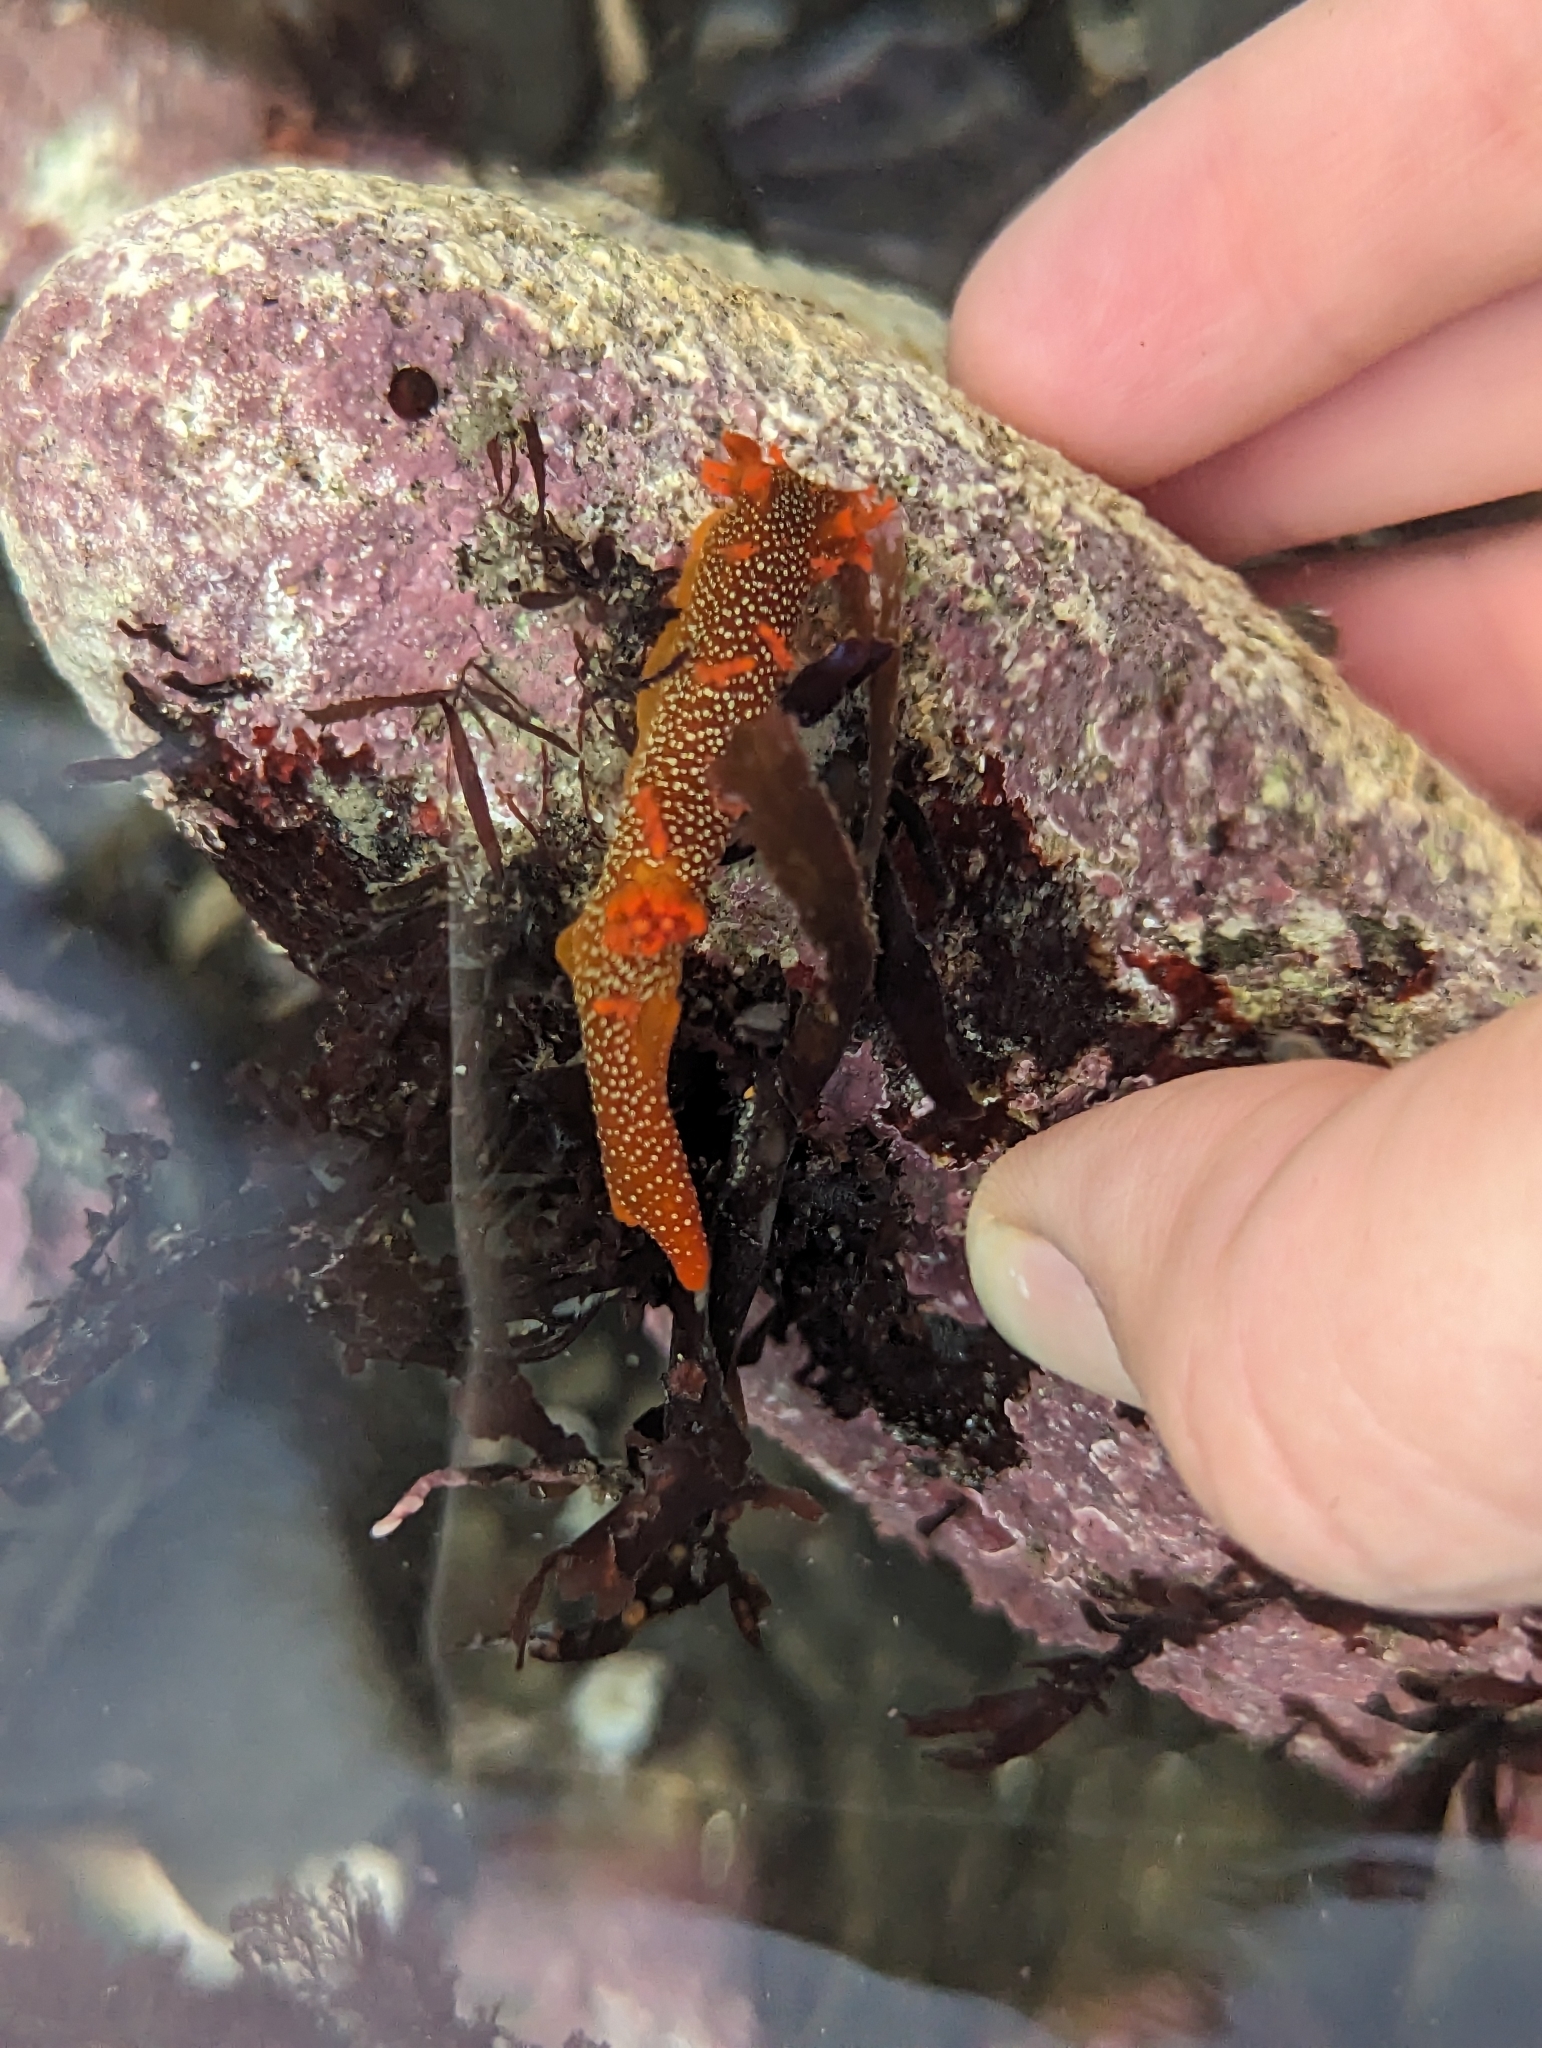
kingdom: Animalia
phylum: Mollusca
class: Gastropoda
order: Nudibranchia
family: Polyceridae
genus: Triopha
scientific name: Triopha maculata
